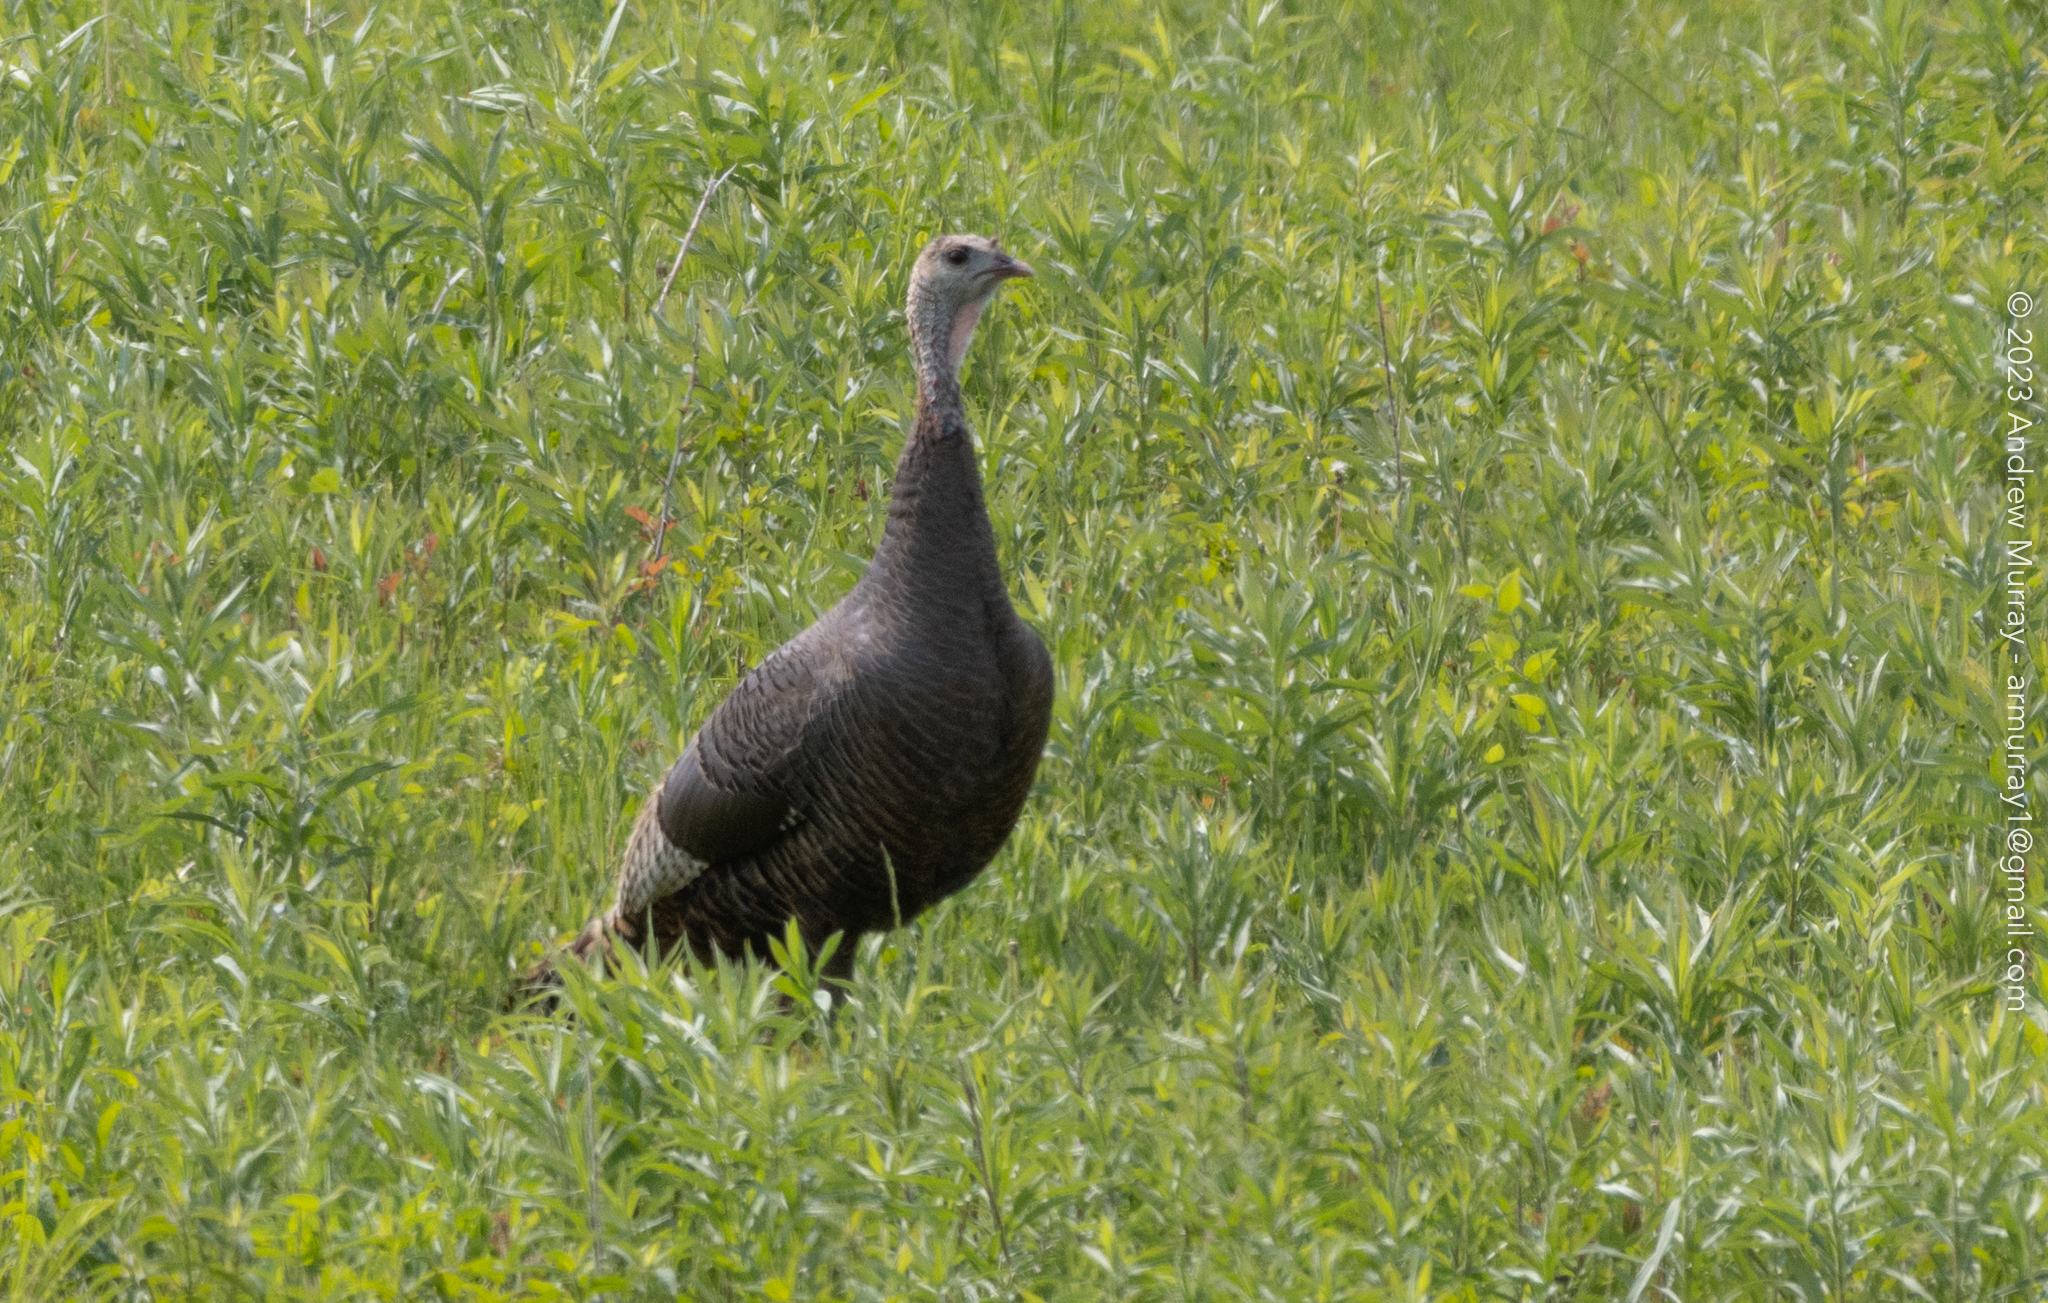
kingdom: Animalia
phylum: Chordata
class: Aves
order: Galliformes
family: Phasianidae
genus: Meleagris
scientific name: Meleagris gallopavo
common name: Wild turkey
